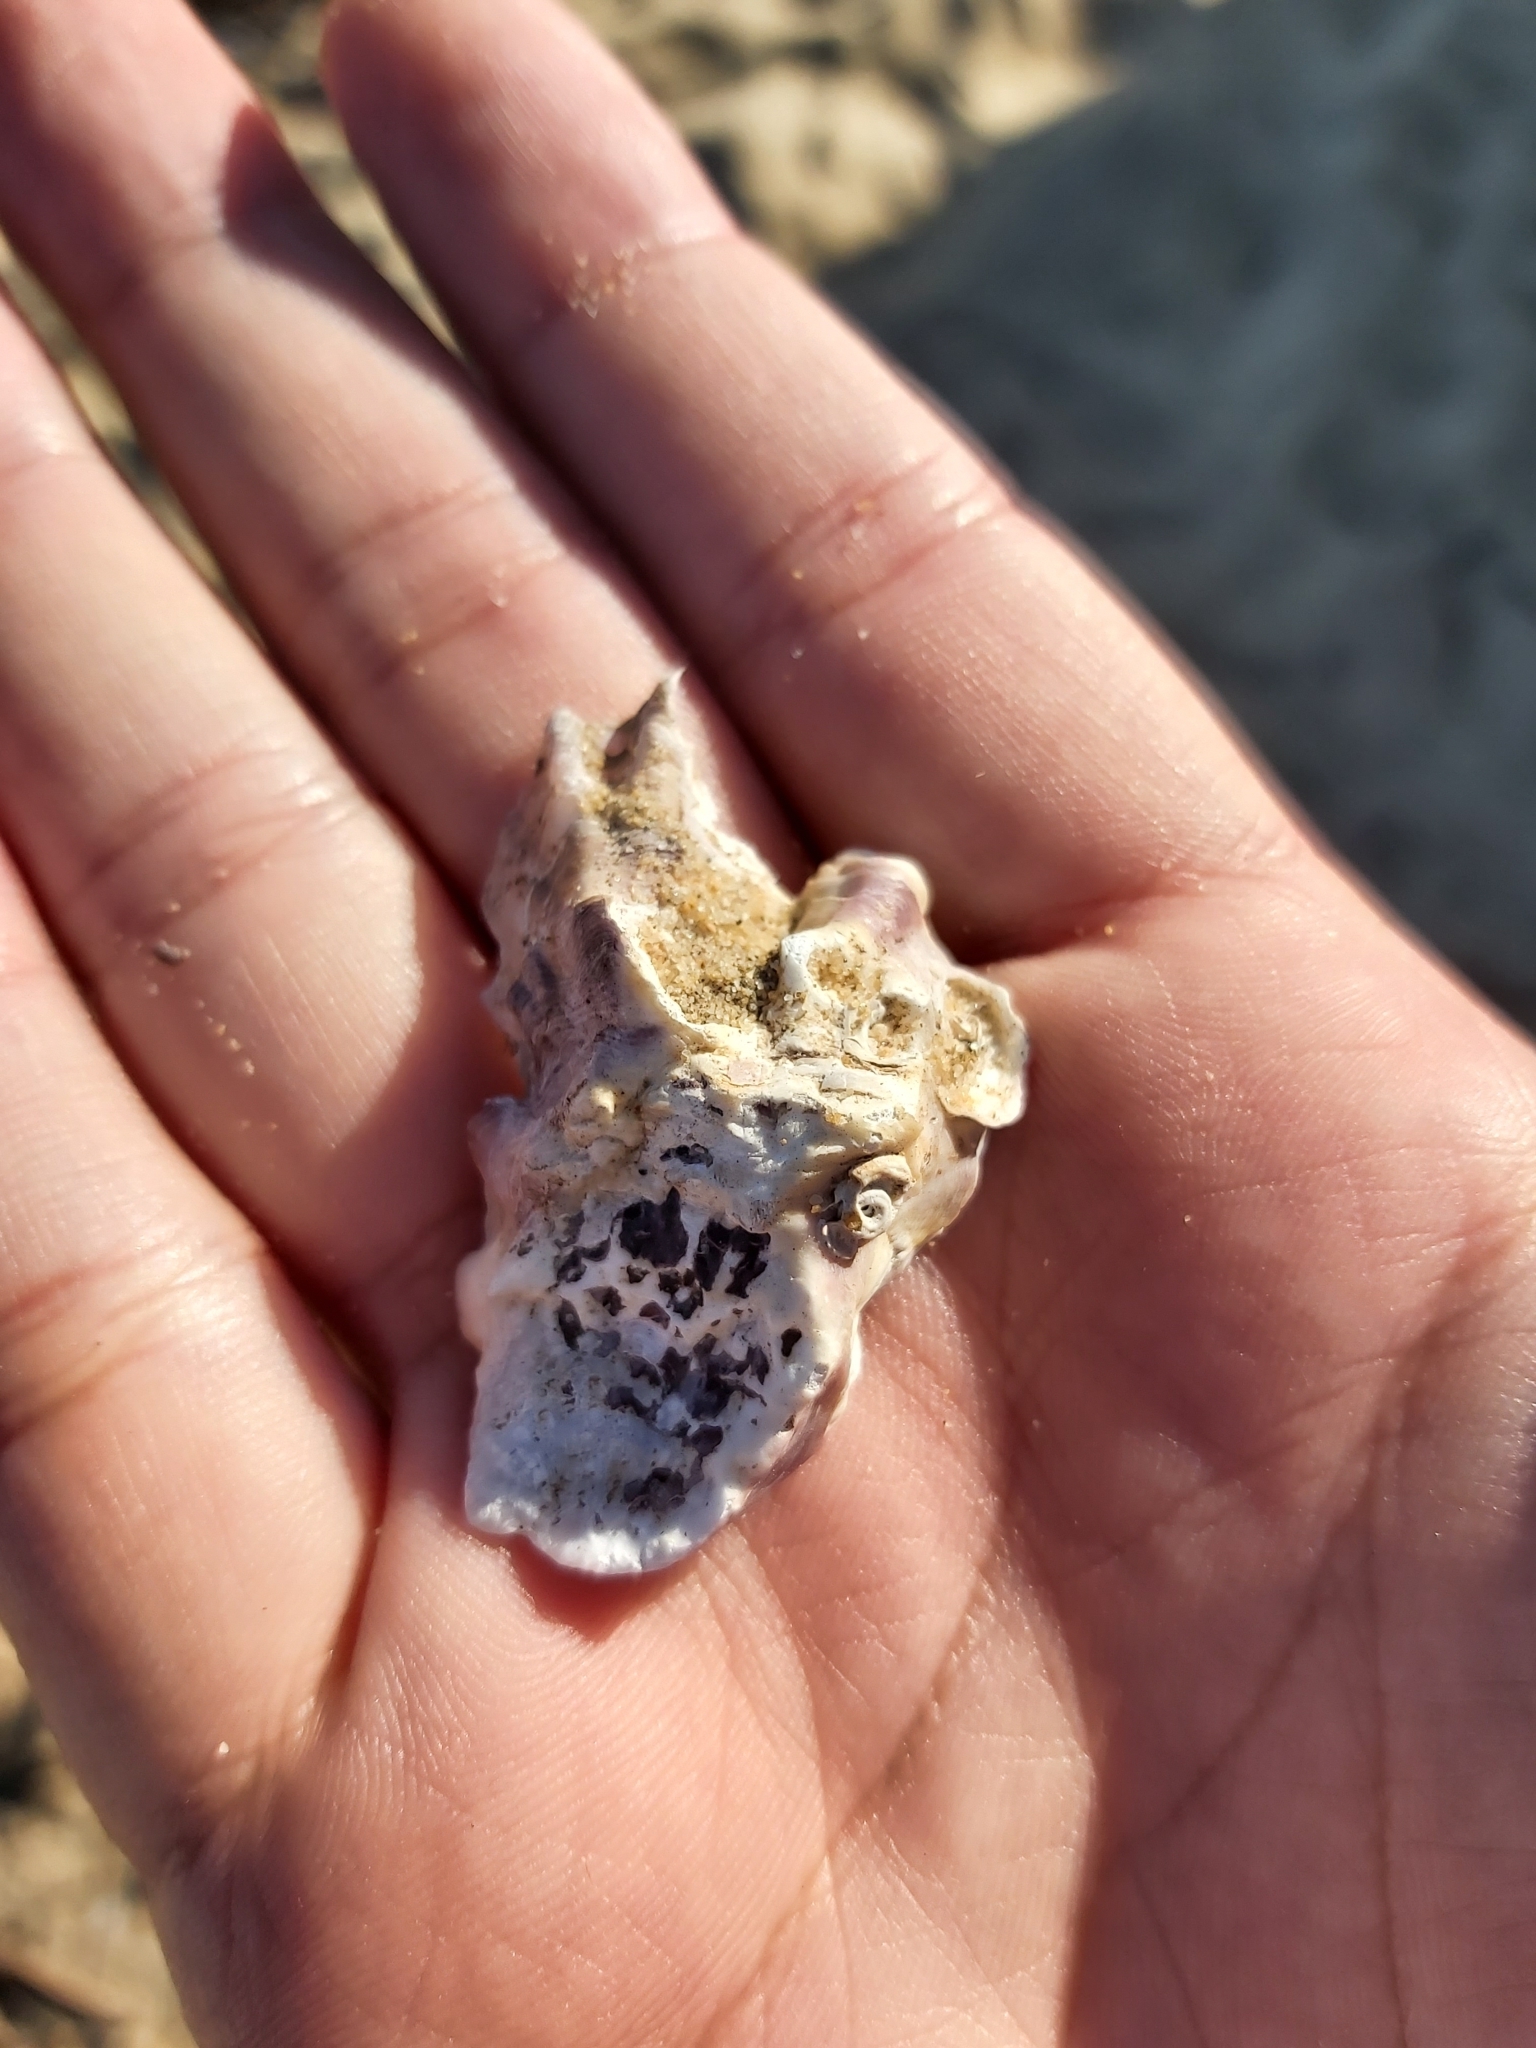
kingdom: Animalia
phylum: Mollusca
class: Bivalvia
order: Ostreida
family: Ostreidae
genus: Saccostrea
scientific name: Saccostrea glomerata
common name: Sydney cupped oyster
